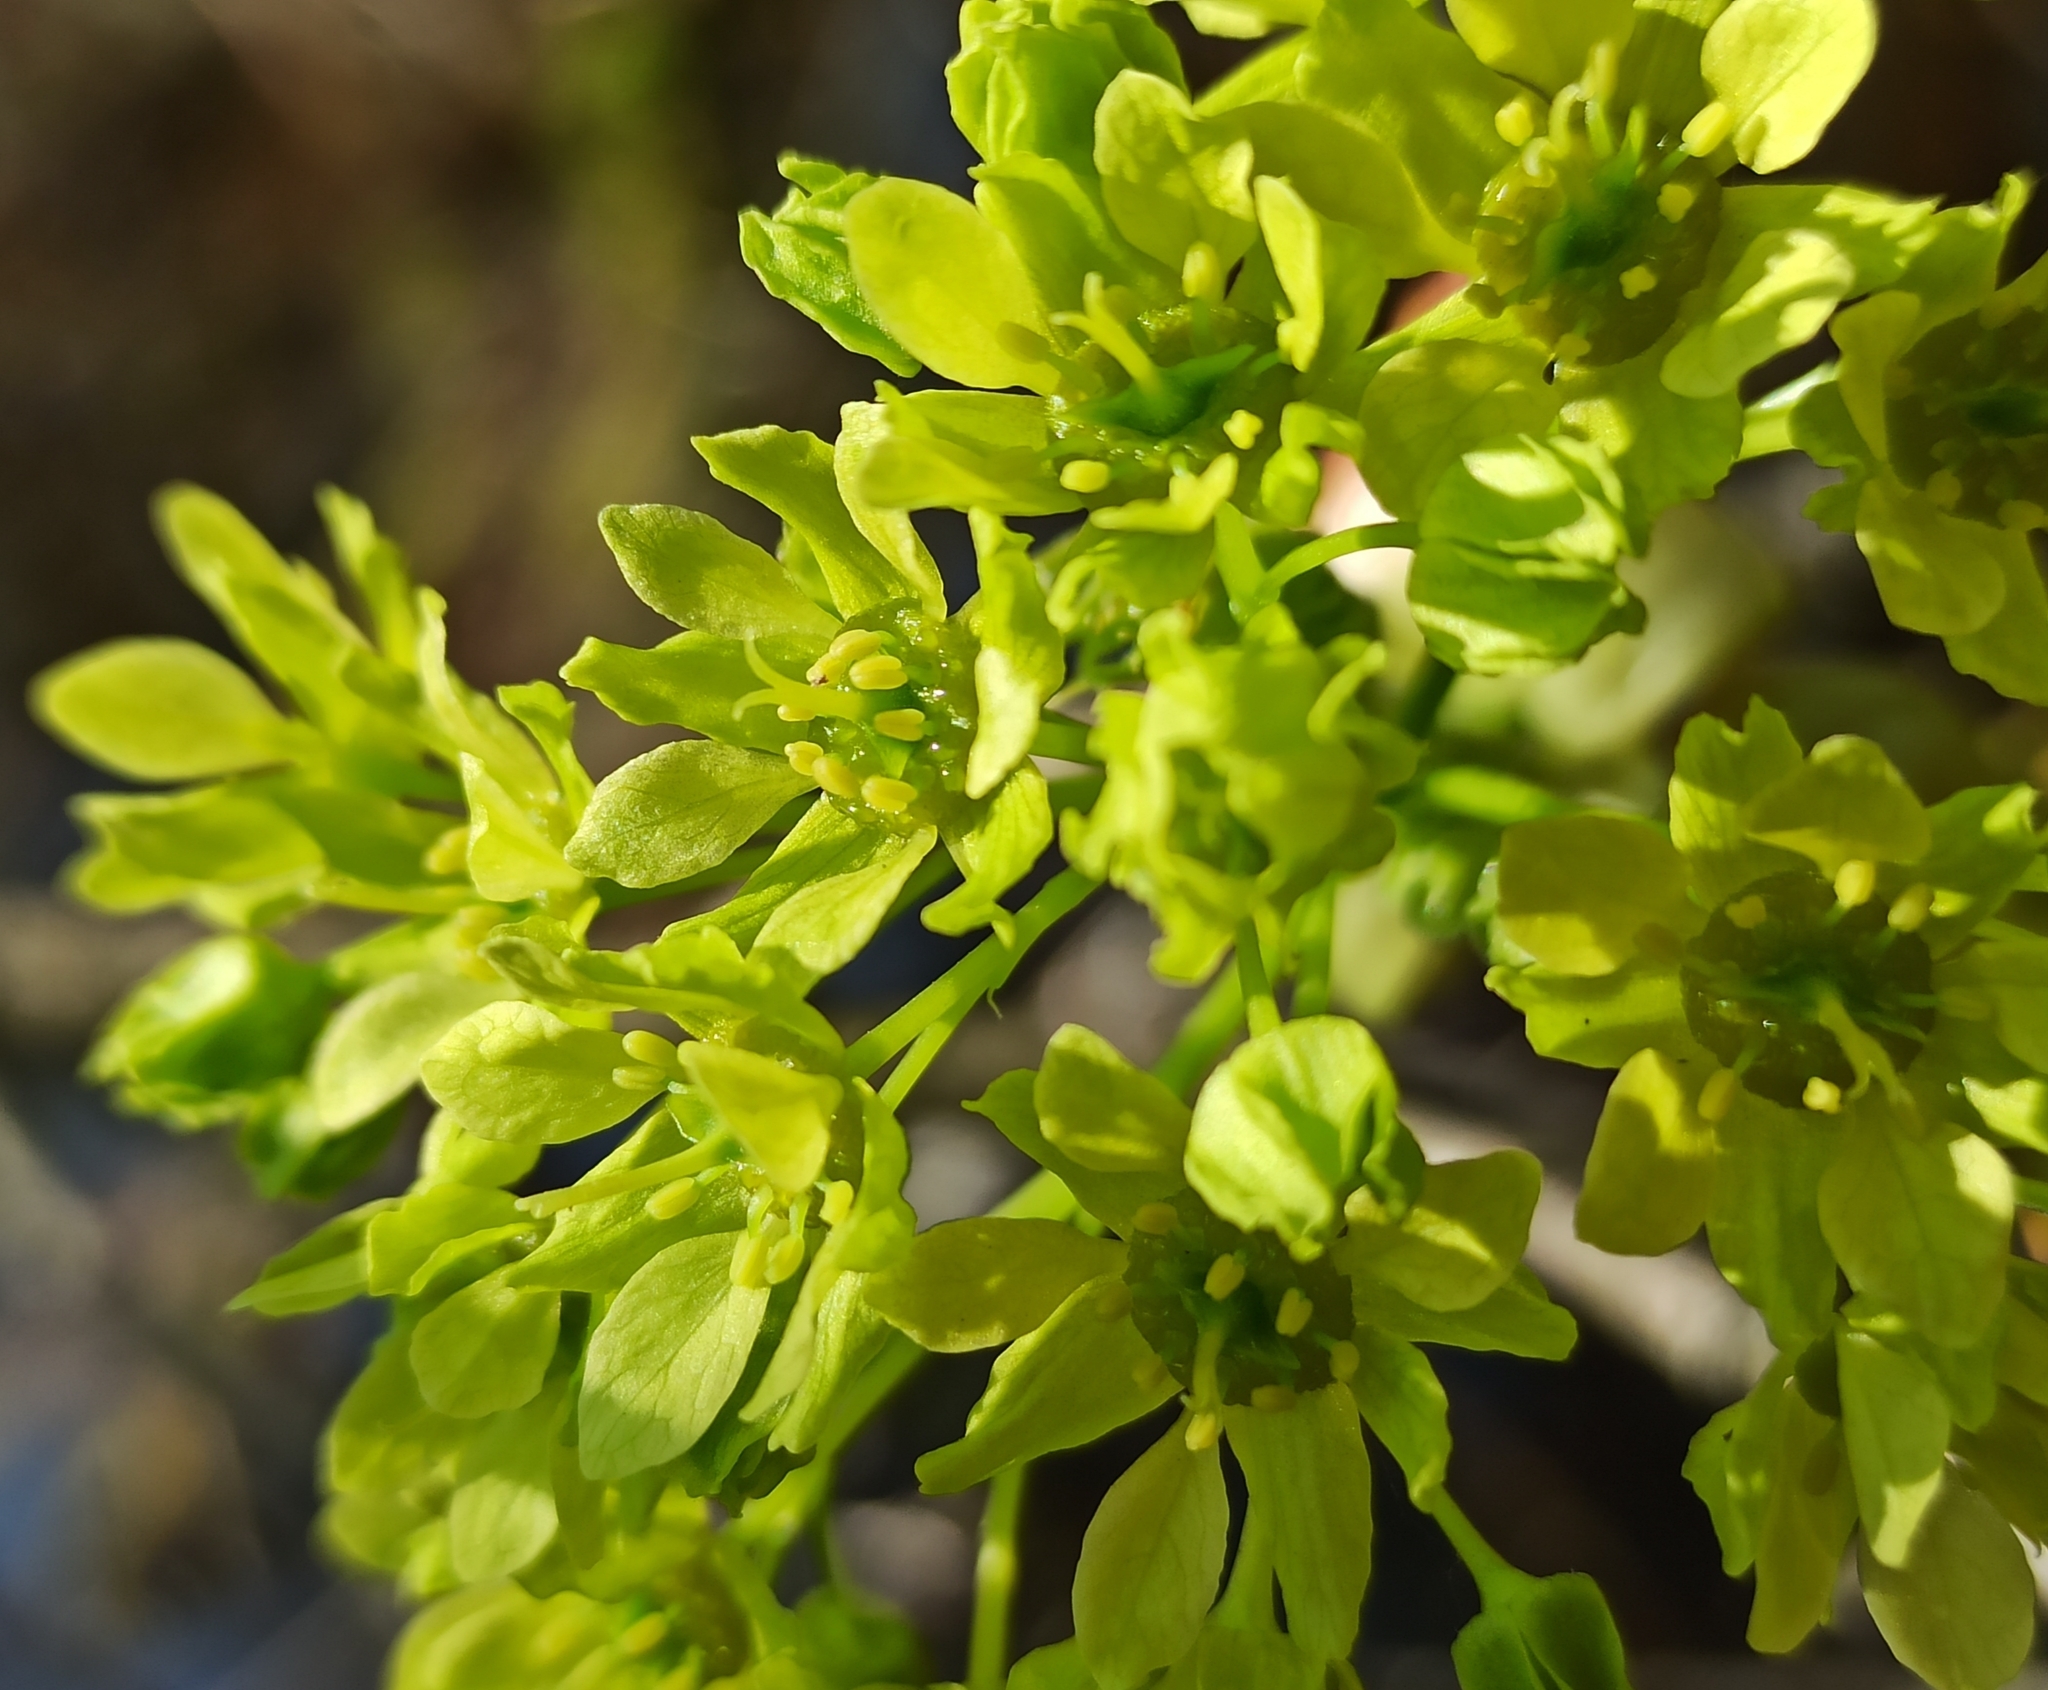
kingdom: Plantae
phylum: Tracheophyta
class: Magnoliopsida
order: Sapindales
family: Sapindaceae
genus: Acer
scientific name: Acer platanoides
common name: Norway maple
